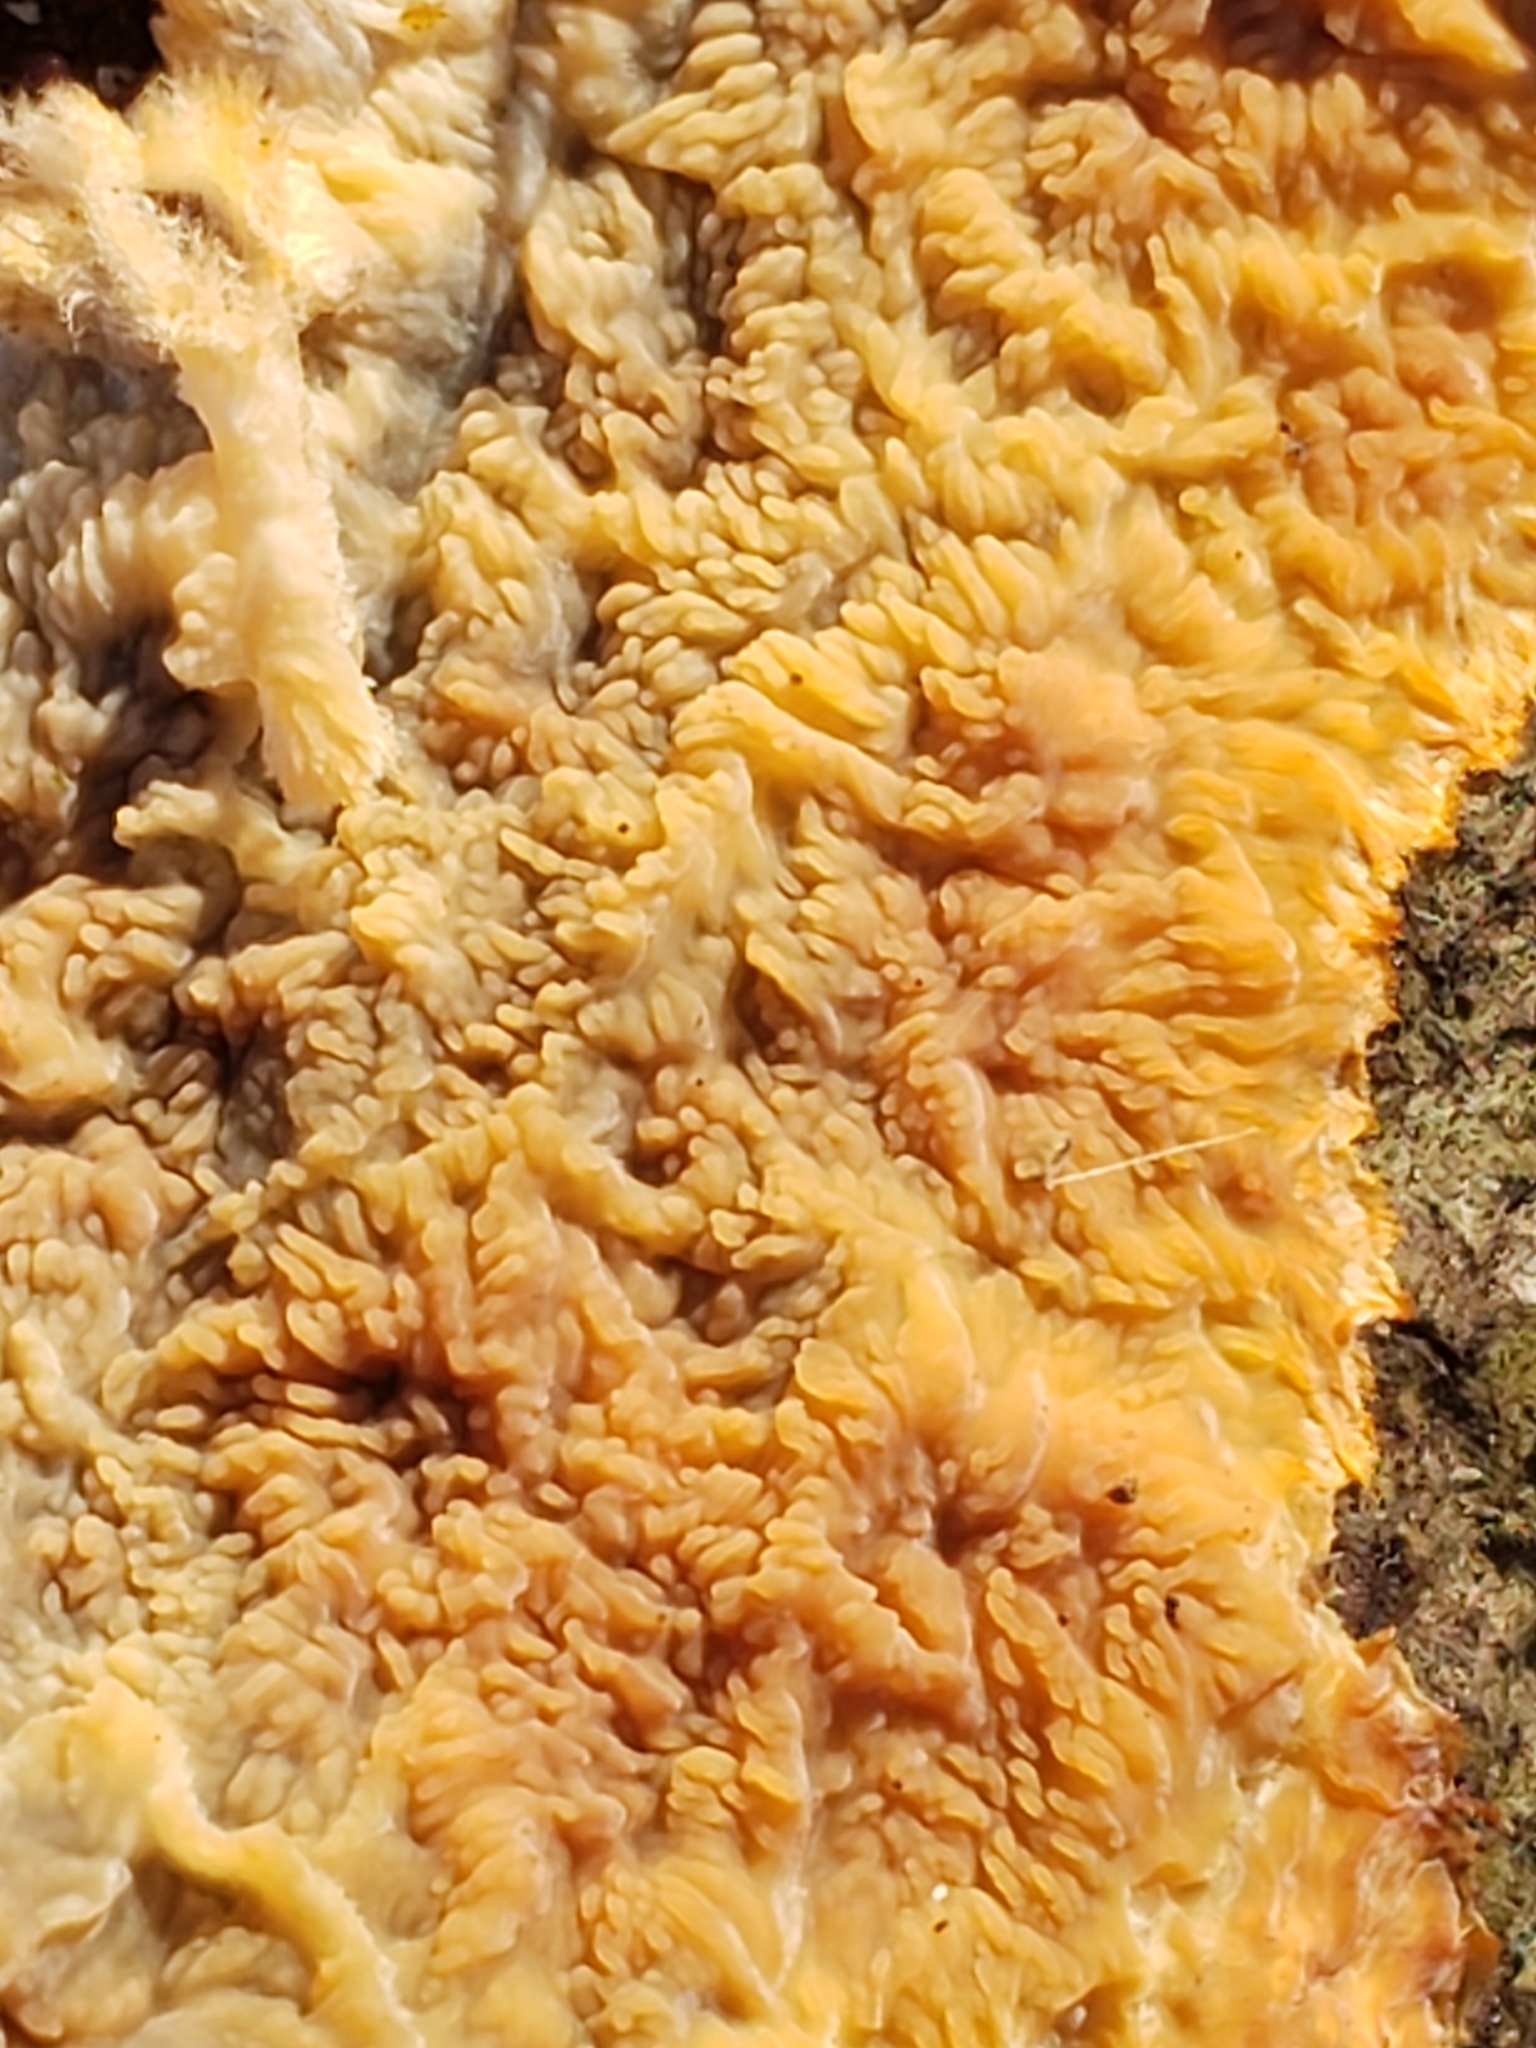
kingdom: Fungi
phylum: Basidiomycota
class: Agaricomycetes
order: Polyporales
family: Meruliaceae
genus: Phlebia
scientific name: Phlebia radiata
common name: Wrinkled crust
